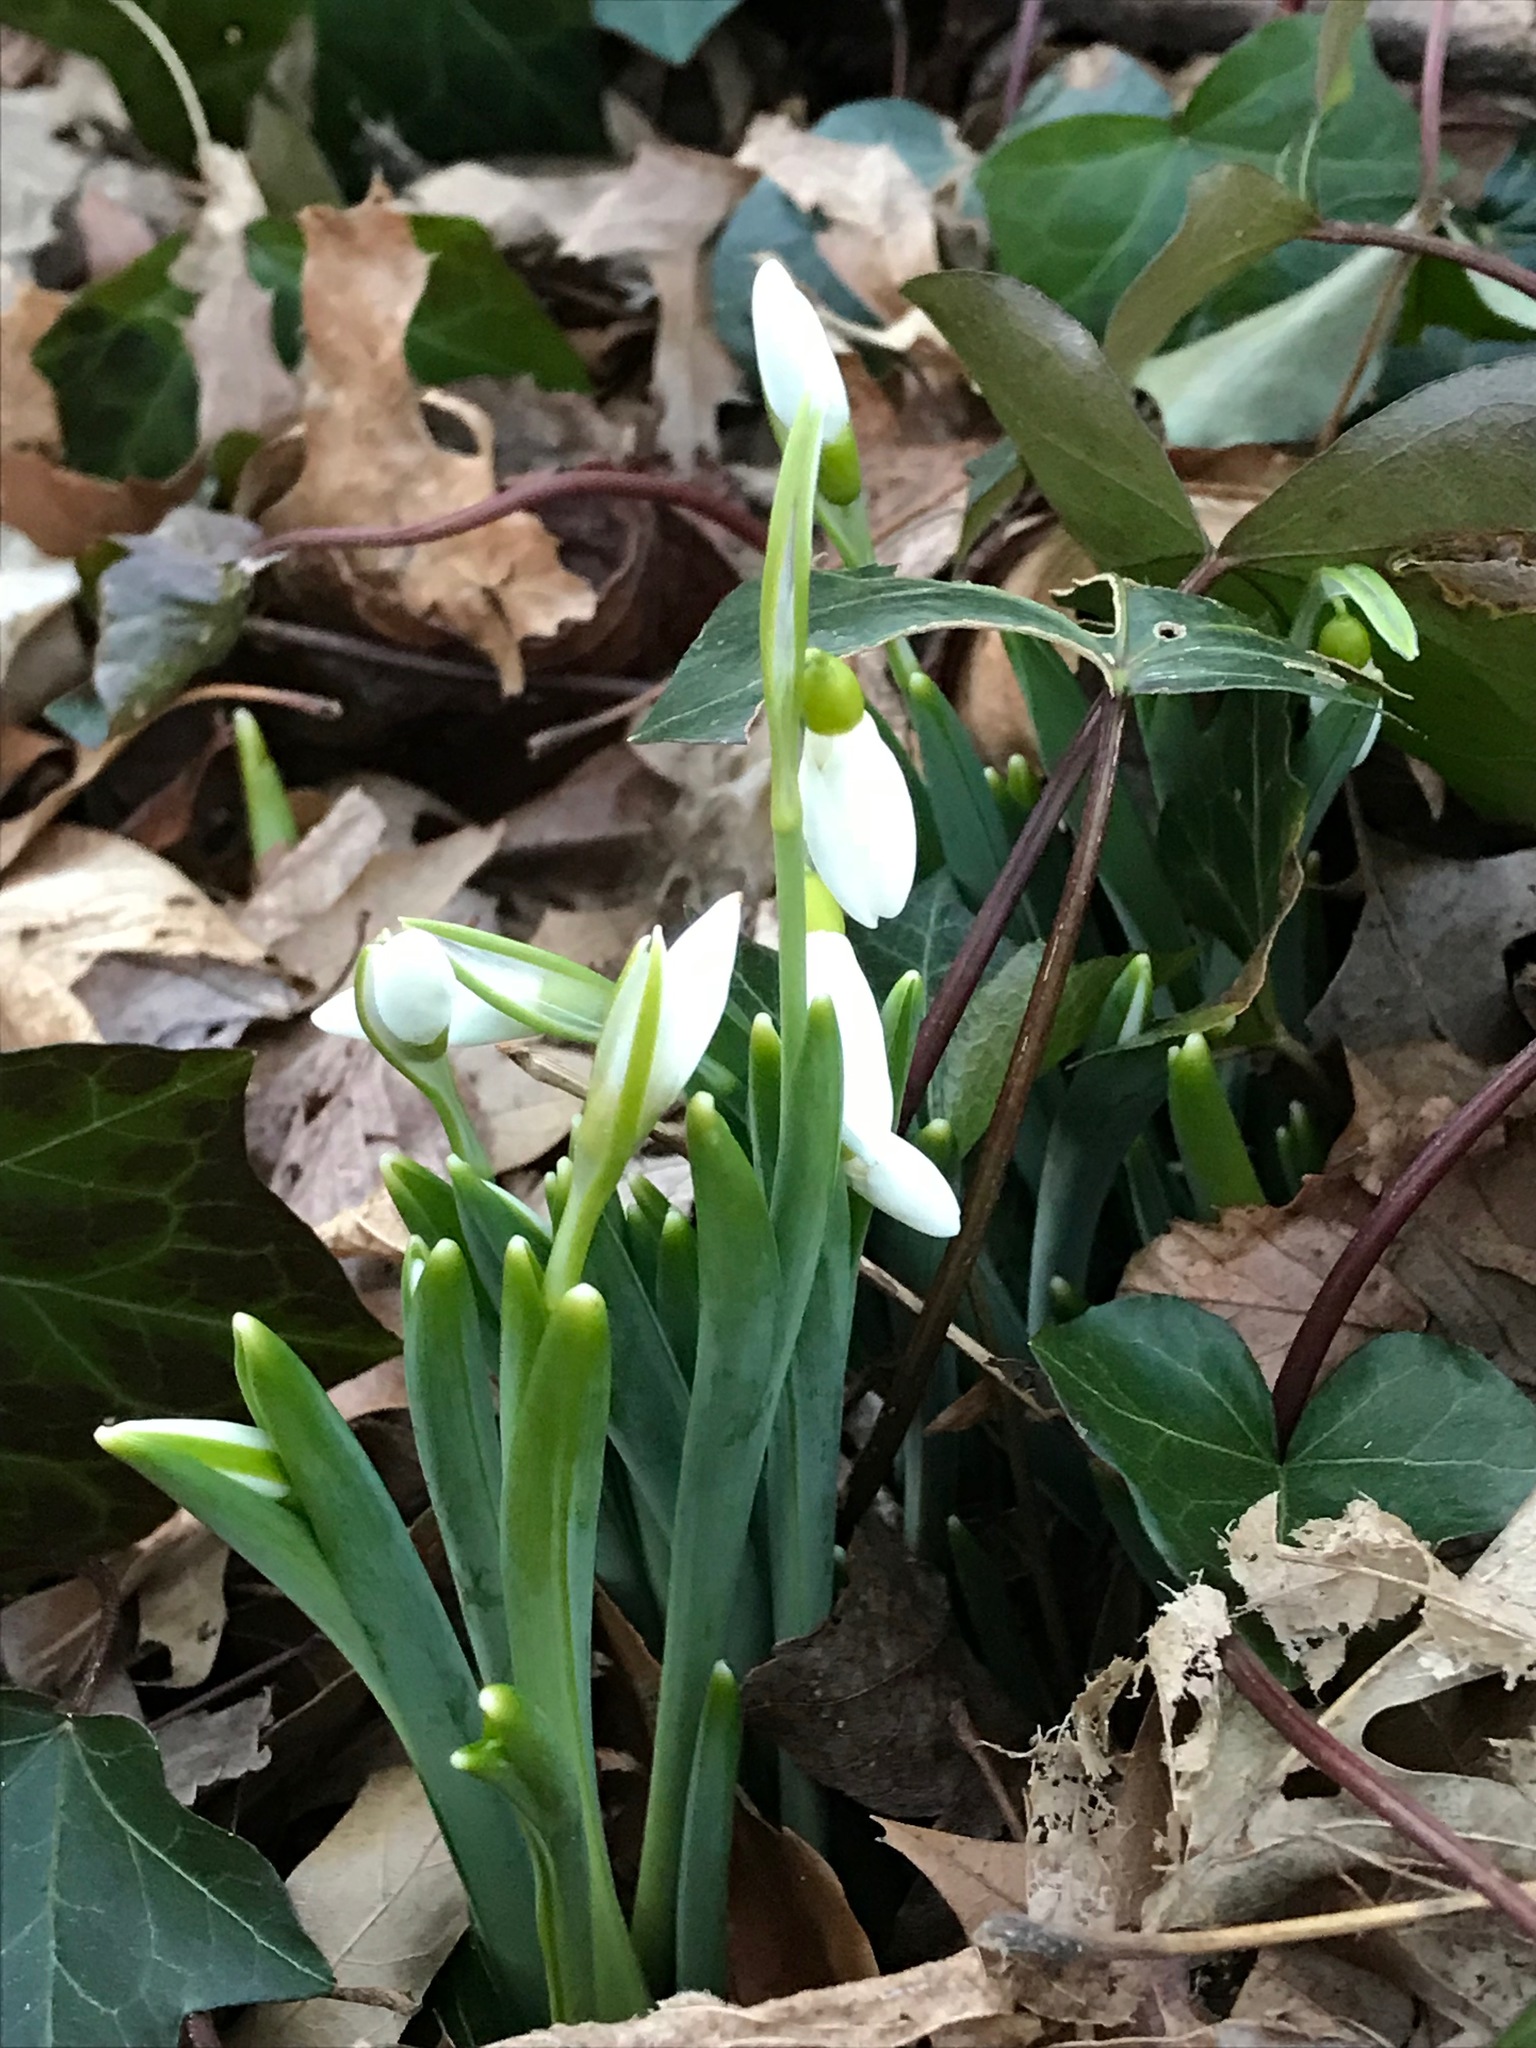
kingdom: Plantae
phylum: Tracheophyta
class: Liliopsida
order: Asparagales
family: Amaryllidaceae
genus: Galanthus
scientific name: Galanthus nivalis
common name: Snowdrop
